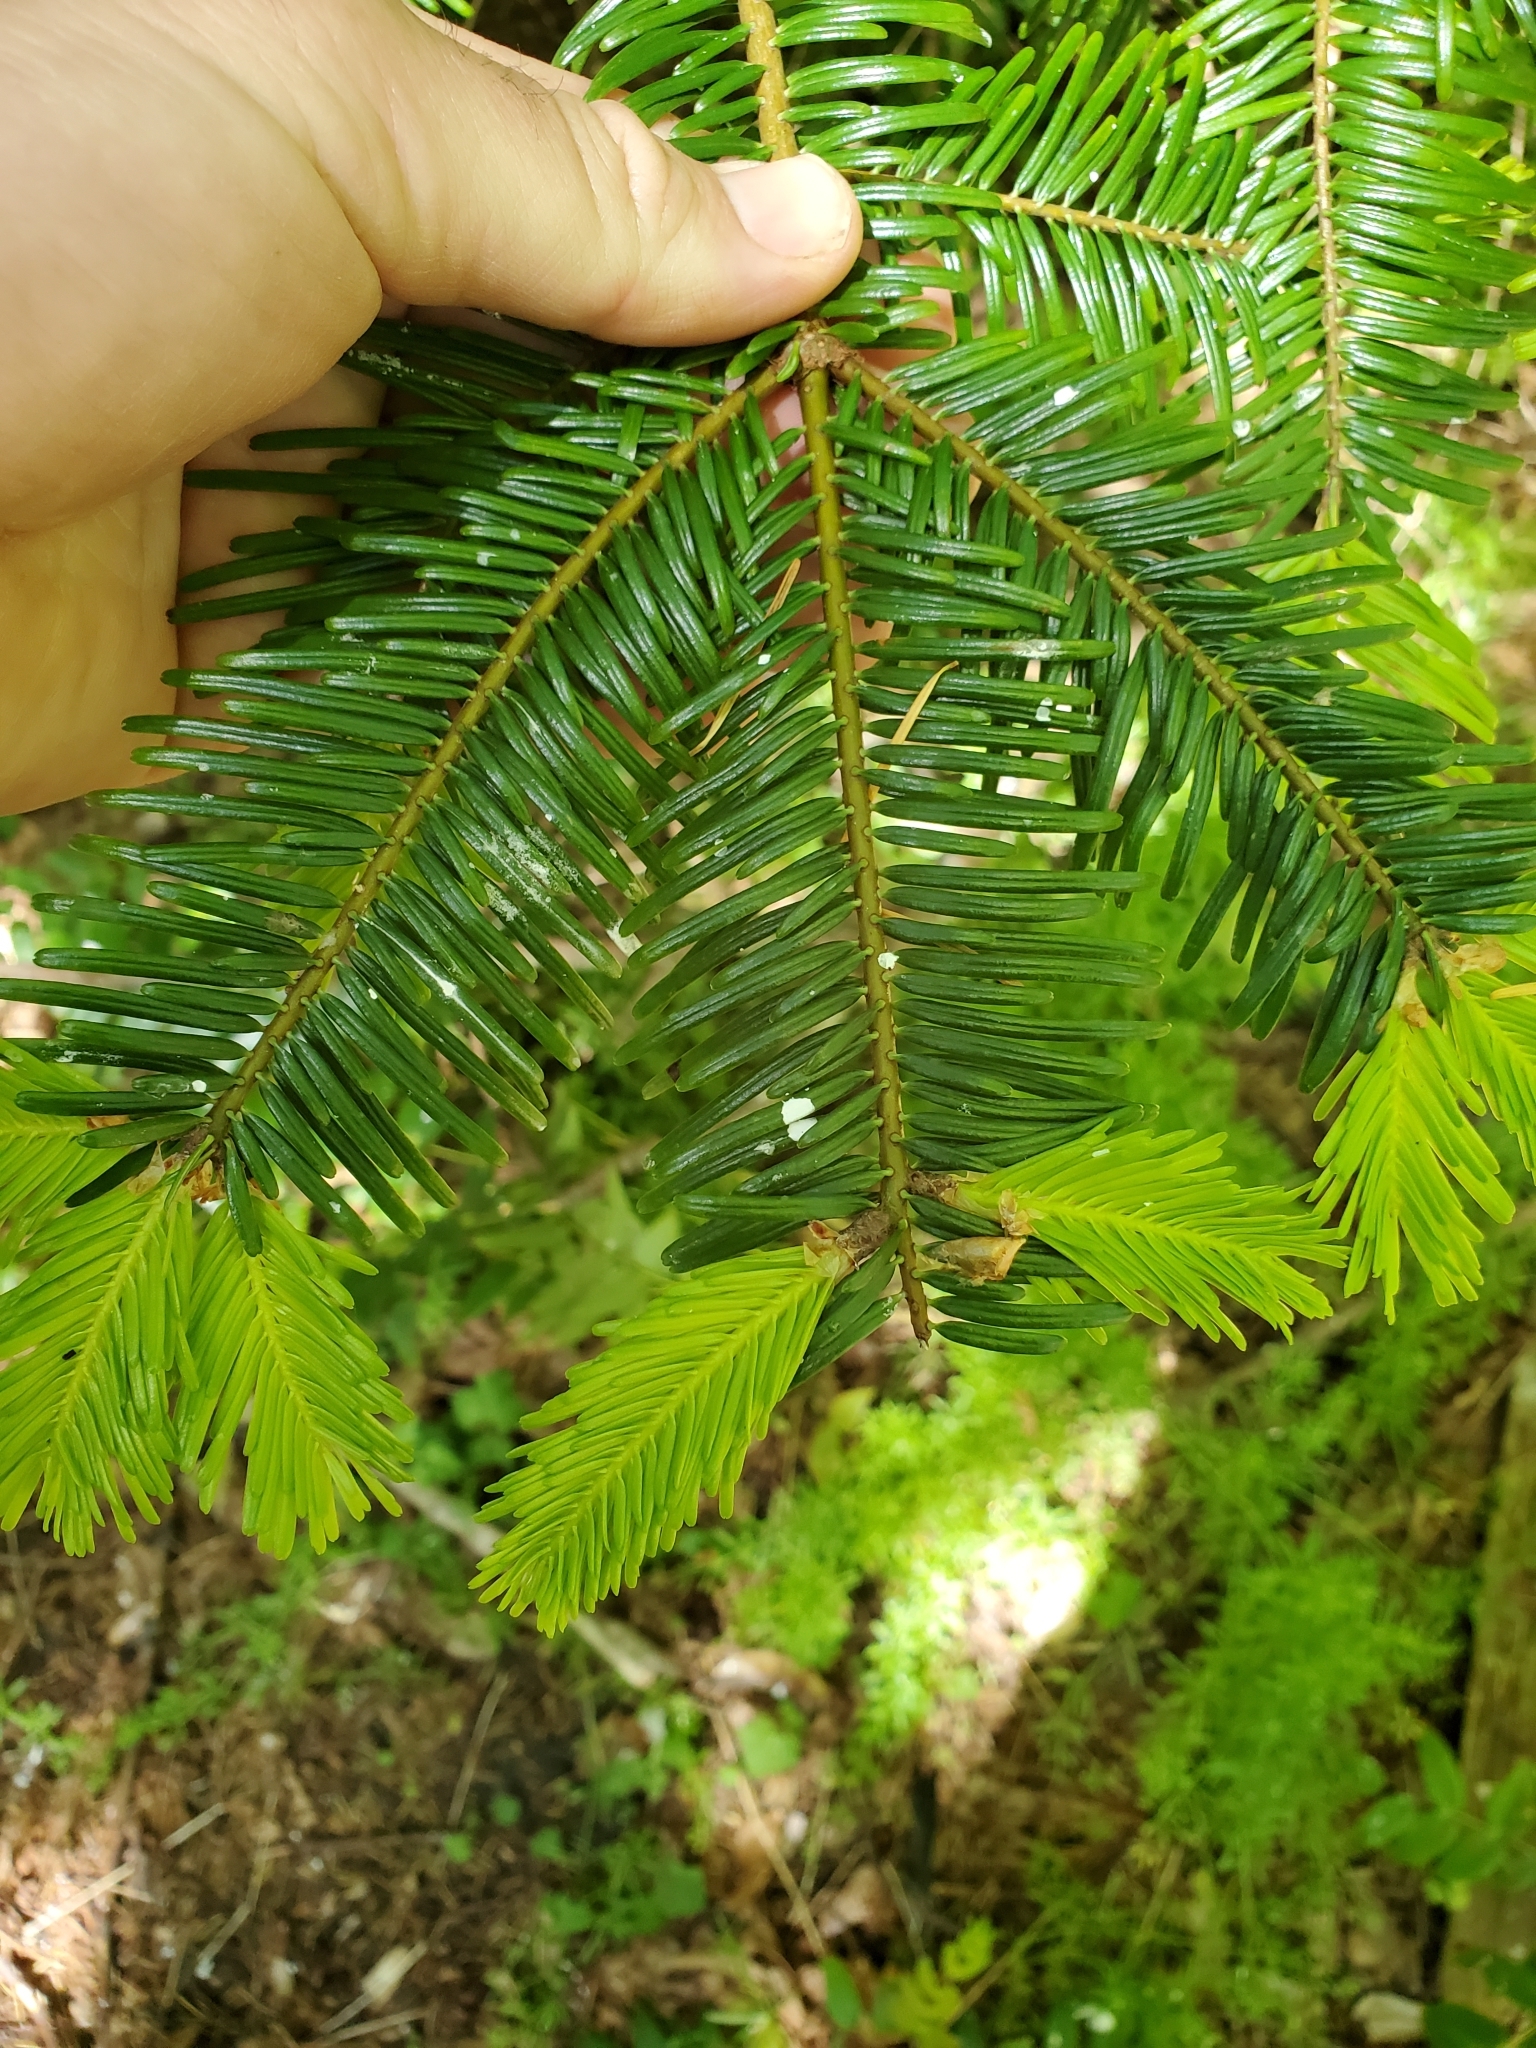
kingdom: Plantae
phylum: Tracheophyta
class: Pinopsida
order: Pinales
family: Pinaceae
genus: Abies
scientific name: Abies grandis
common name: Giant fir
